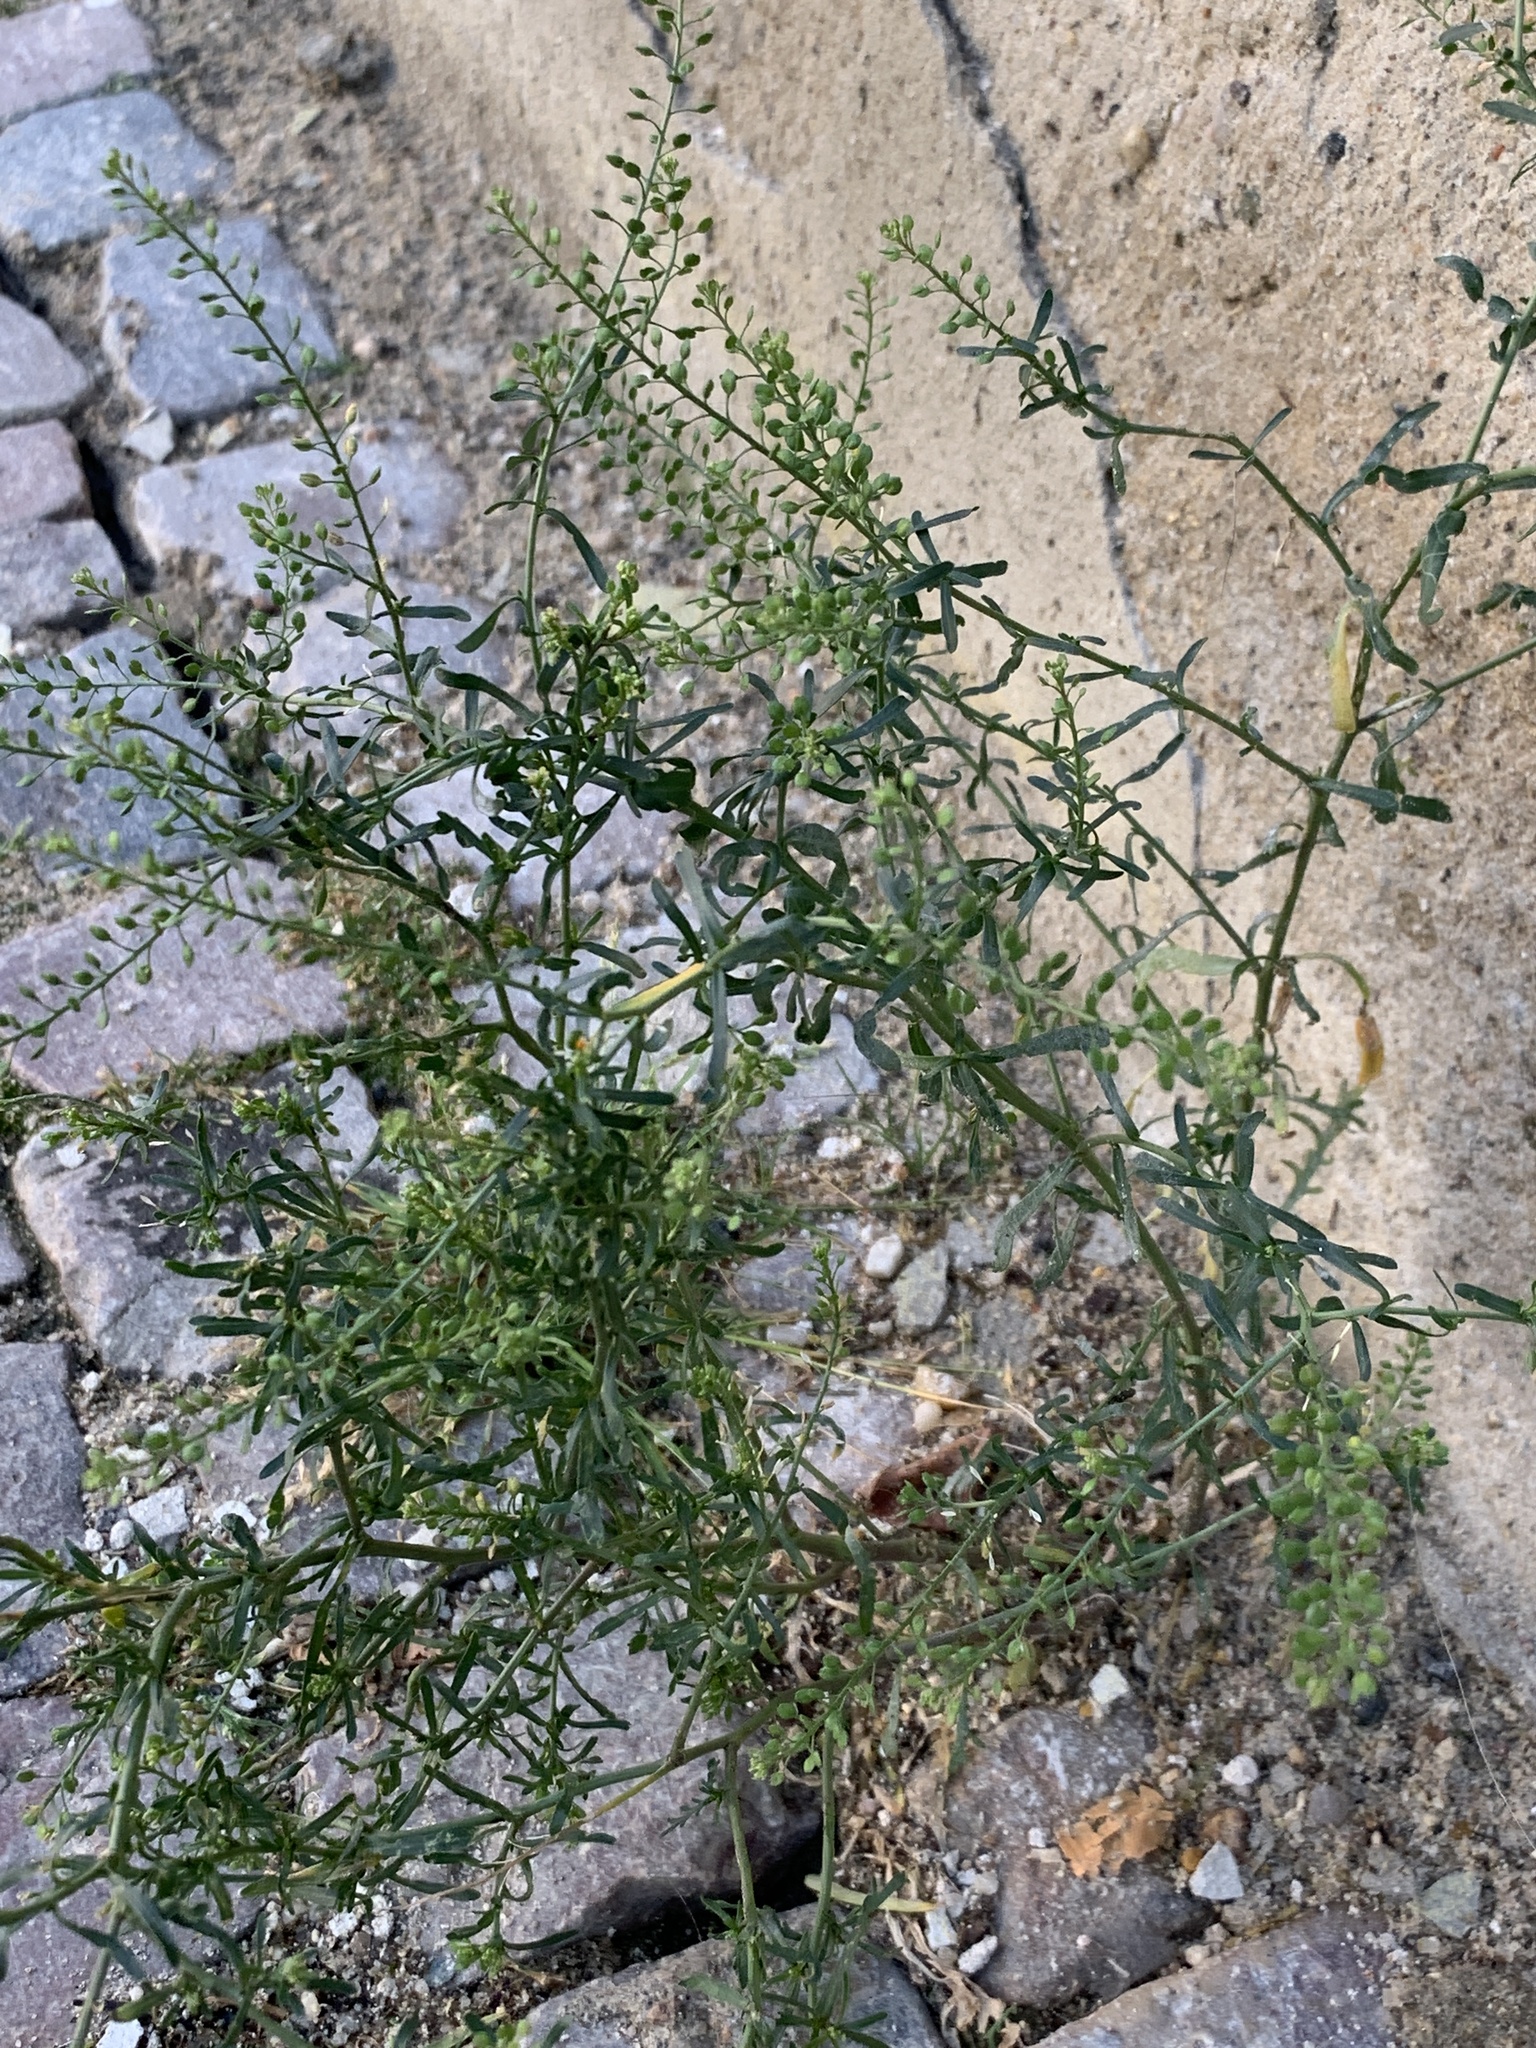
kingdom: Plantae
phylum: Tracheophyta
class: Magnoliopsida
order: Brassicales
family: Brassicaceae
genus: Lepidium
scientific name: Lepidium ruderale
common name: Narrow-leaved pepperwort
